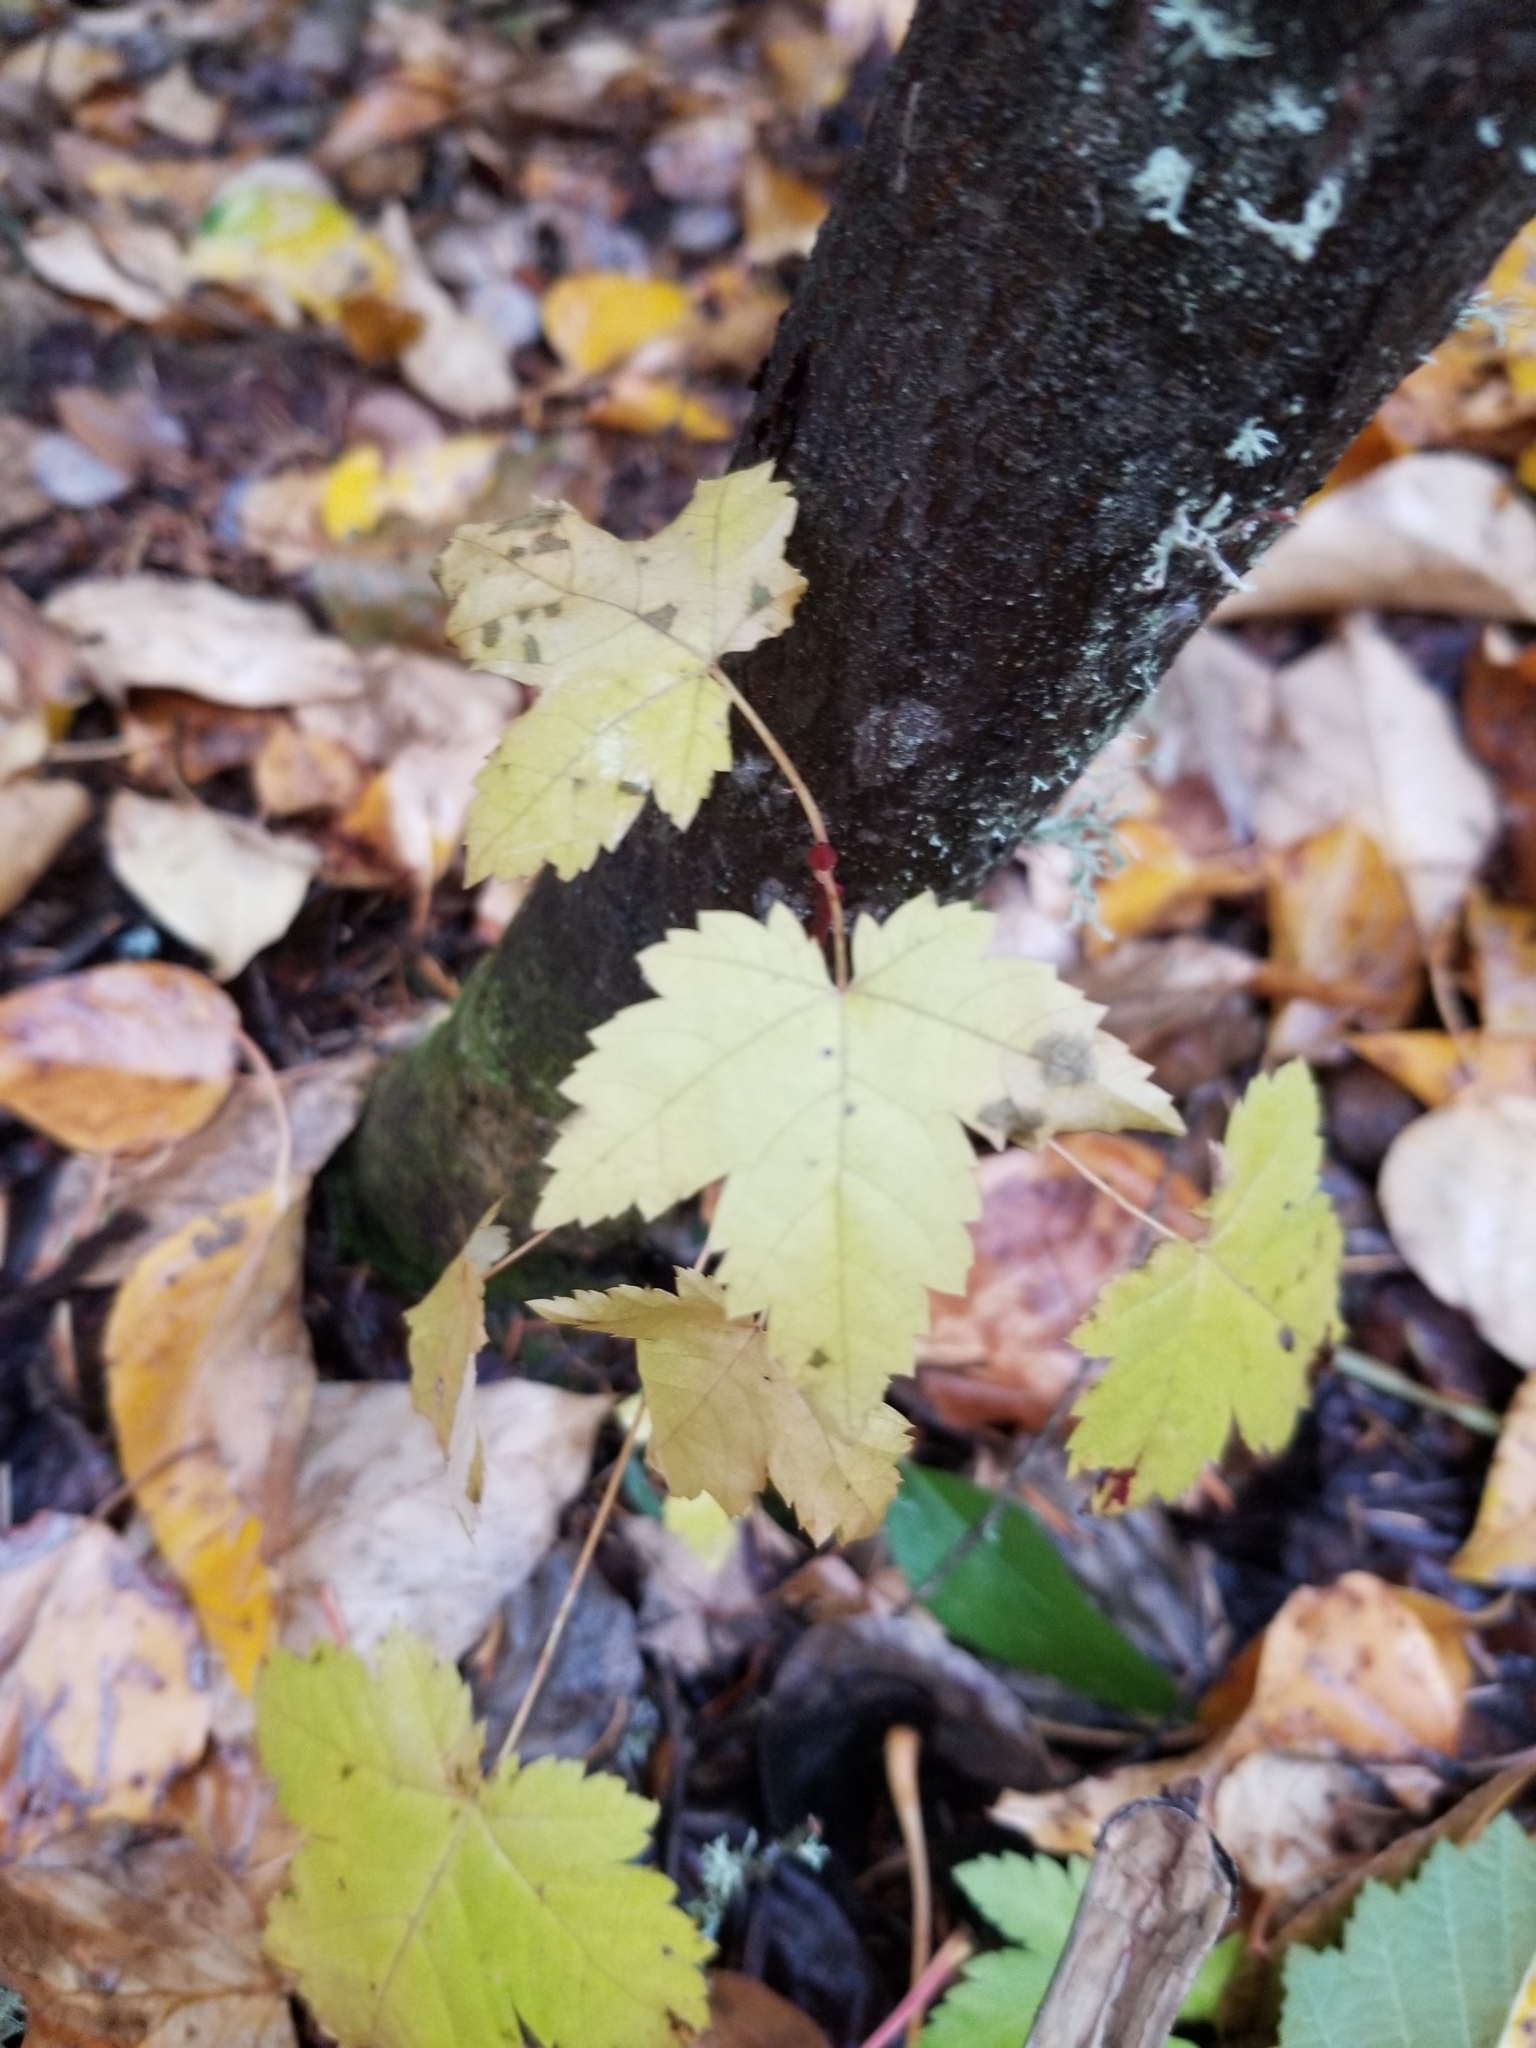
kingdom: Plantae
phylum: Tracheophyta
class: Magnoliopsida
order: Sapindales
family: Sapindaceae
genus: Acer
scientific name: Acer glabrum
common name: Rocky mountain maple
